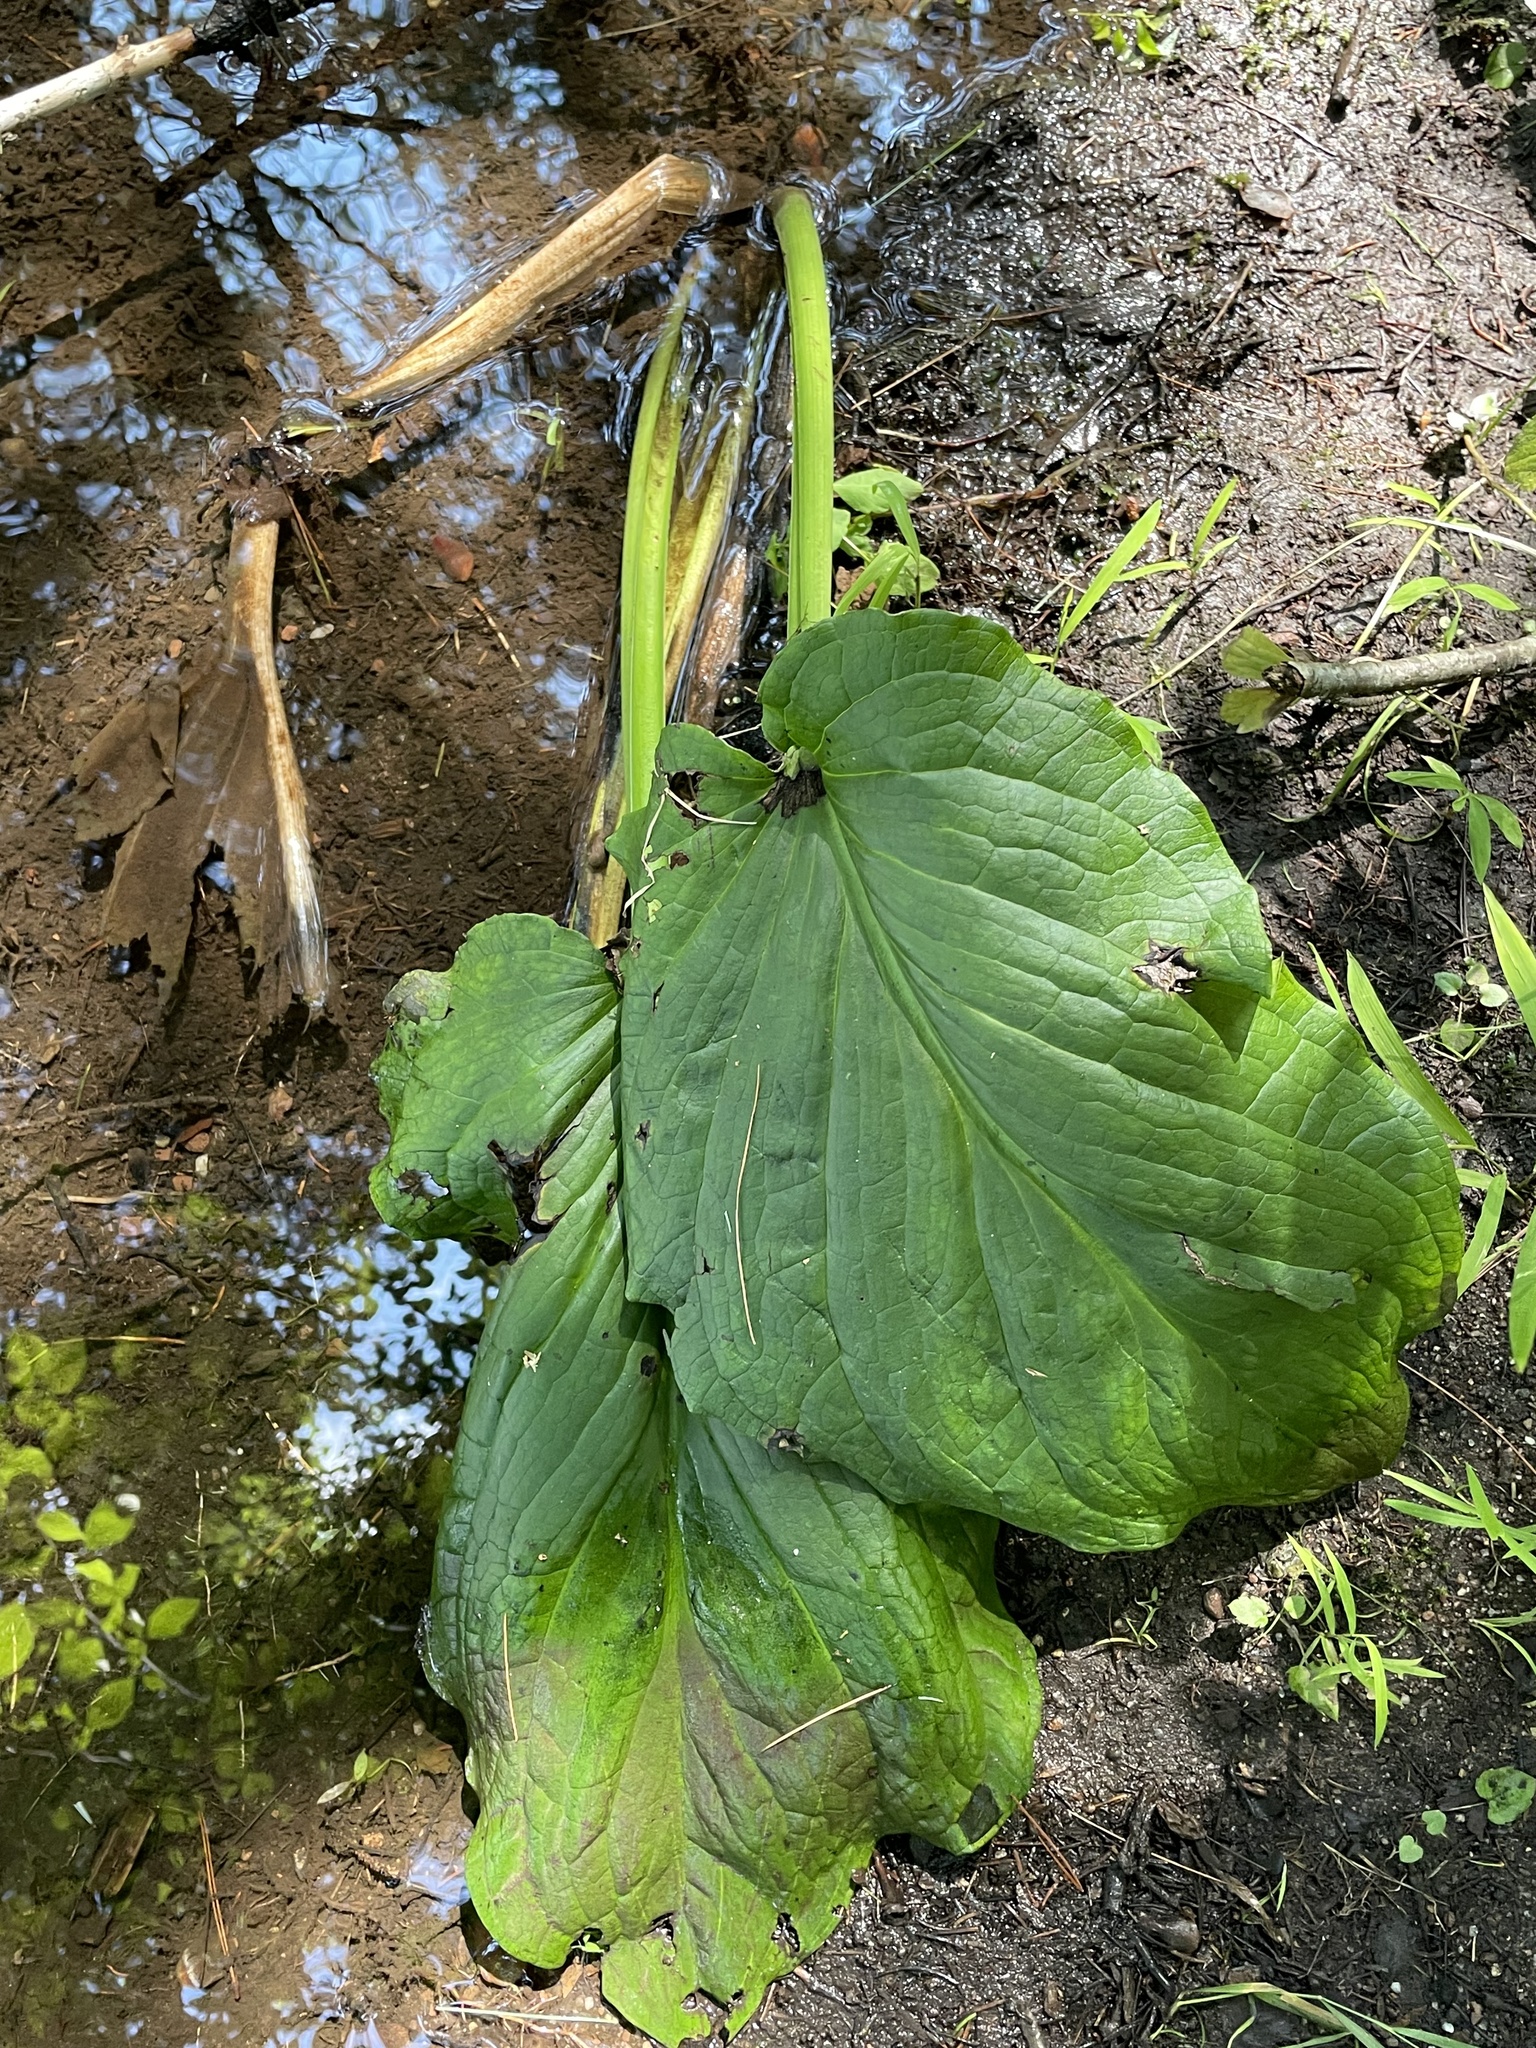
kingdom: Plantae
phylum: Tracheophyta
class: Liliopsida
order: Alismatales
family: Araceae
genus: Symplocarpus
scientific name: Symplocarpus foetidus
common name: Eastern skunk cabbage
